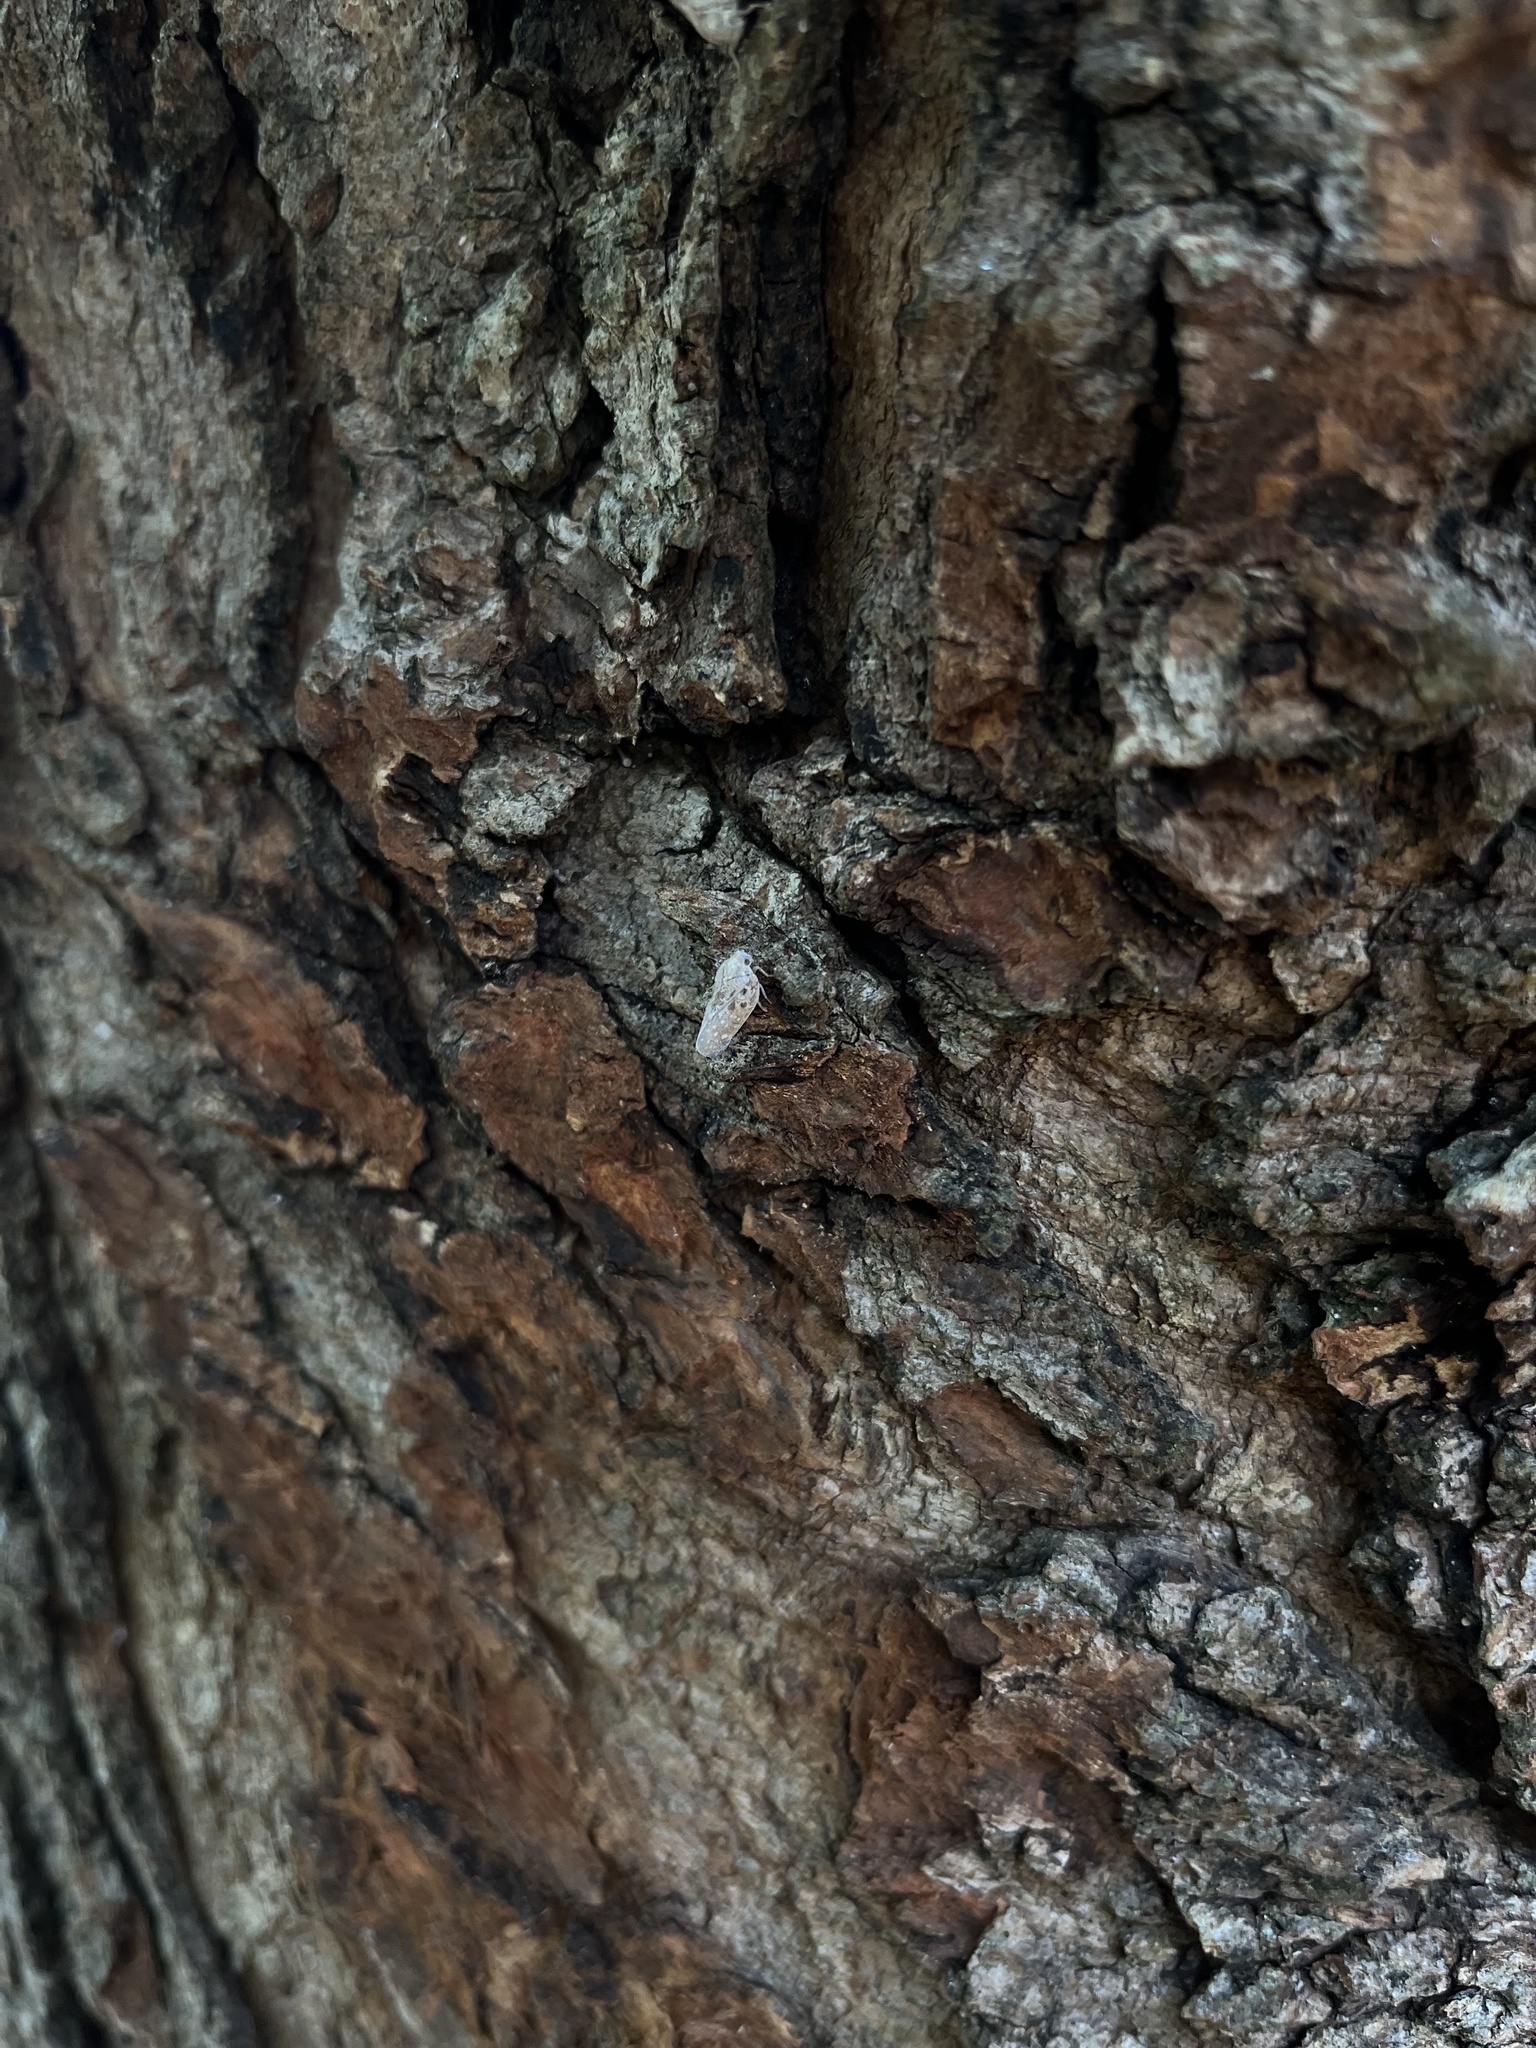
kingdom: Animalia
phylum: Arthropoda
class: Insecta
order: Hemiptera
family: Flatidae
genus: Metcalfa
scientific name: Metcalfa pruinosa
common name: Citrus flatid planthopper
